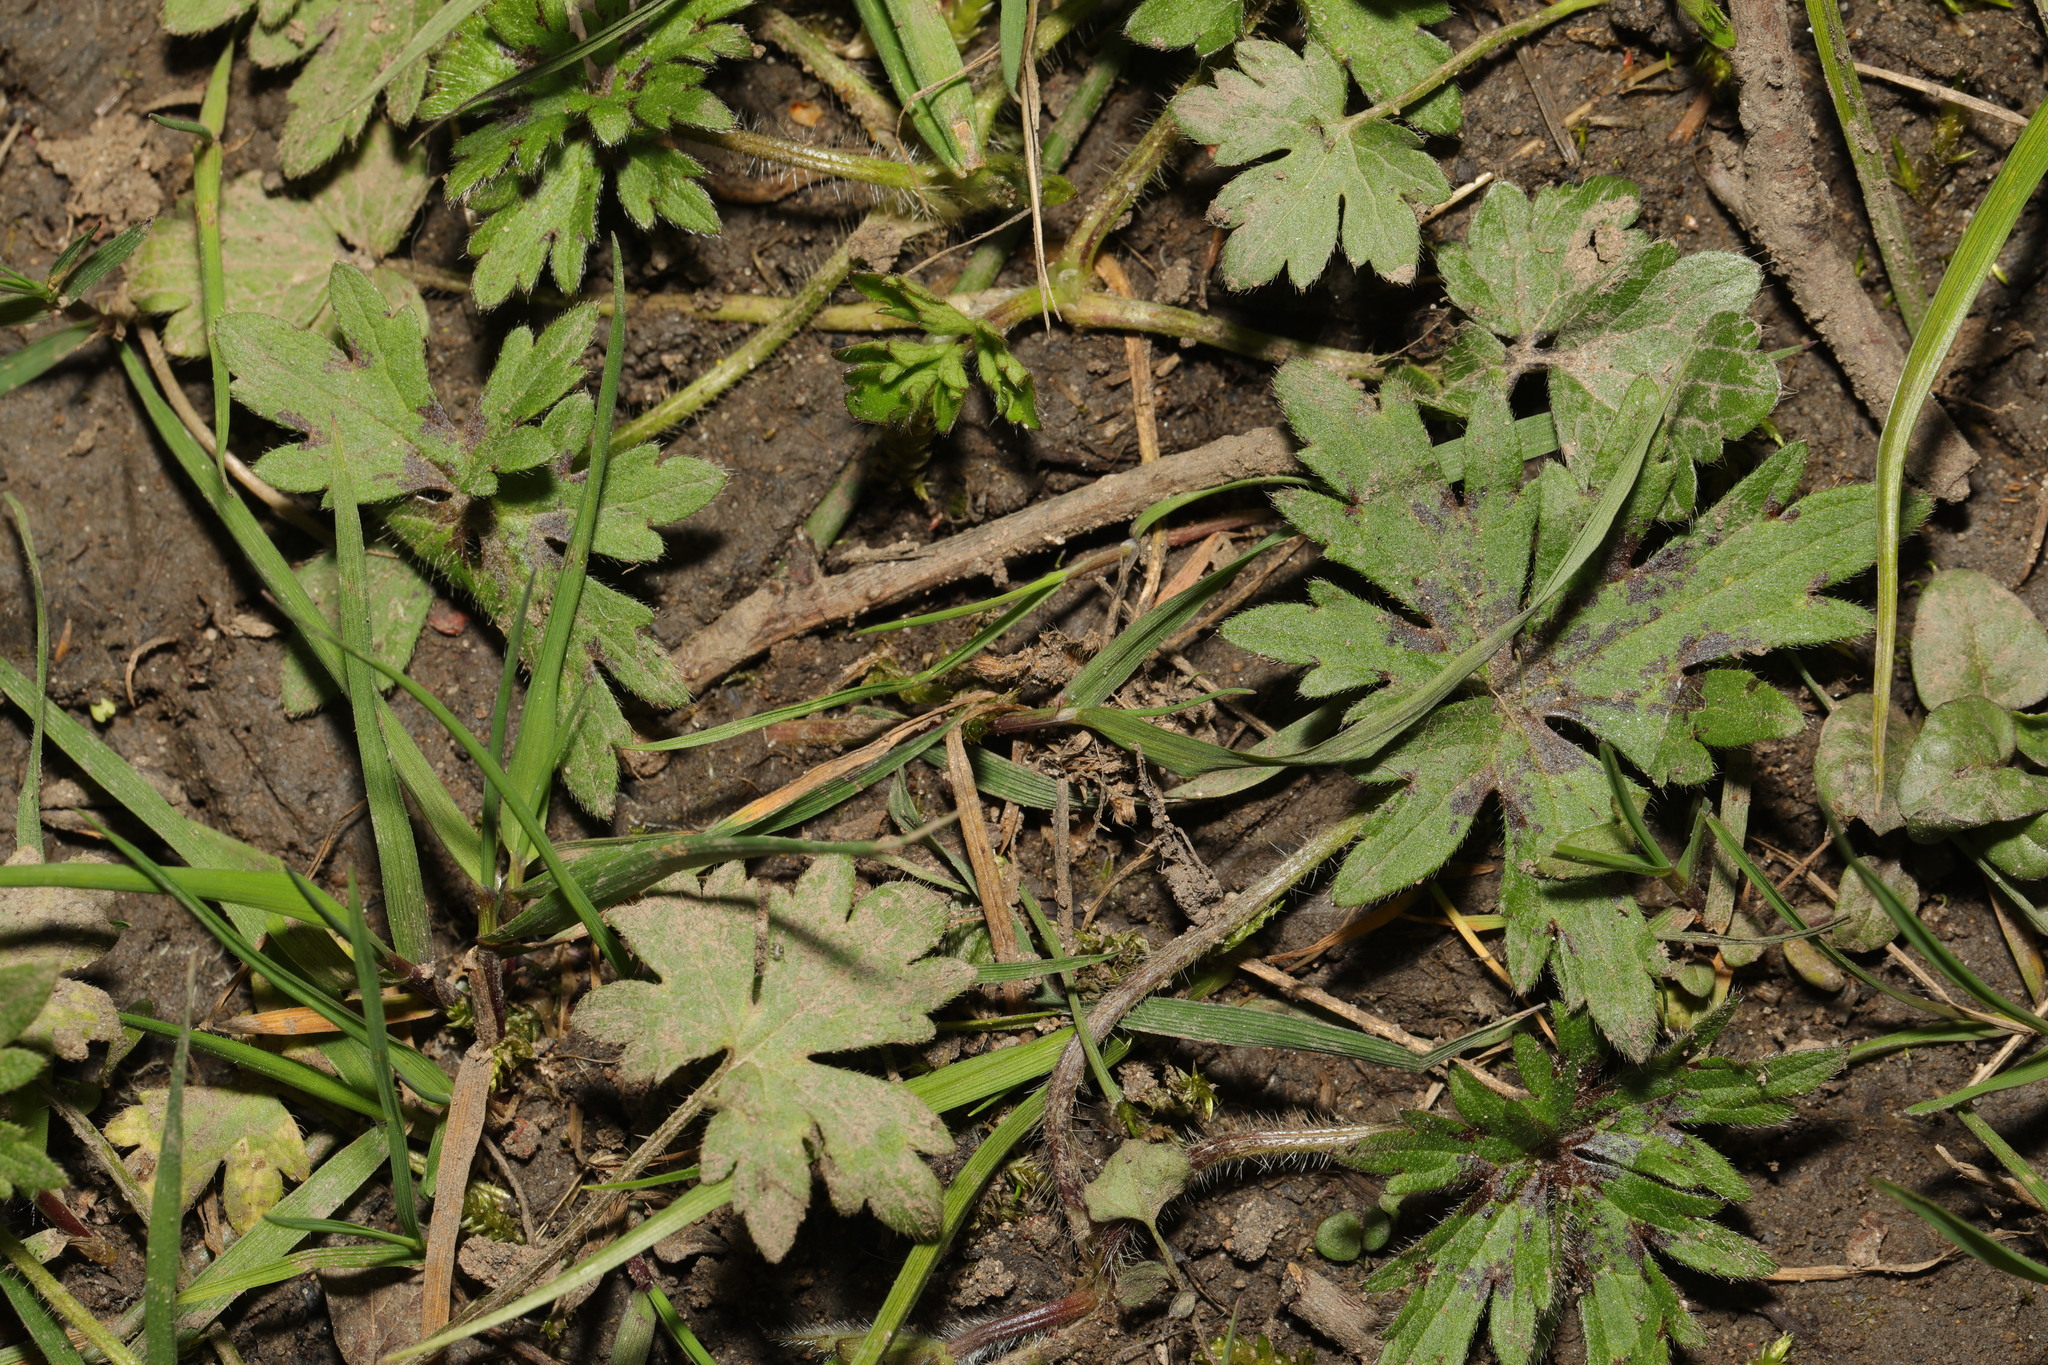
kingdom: Plantae
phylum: Tracheophyta
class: Magnoliopsida
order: Ranunculales
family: Ranunculaceae
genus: Ranunculus
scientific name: Ranunculus repens
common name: Creeping buttercup
